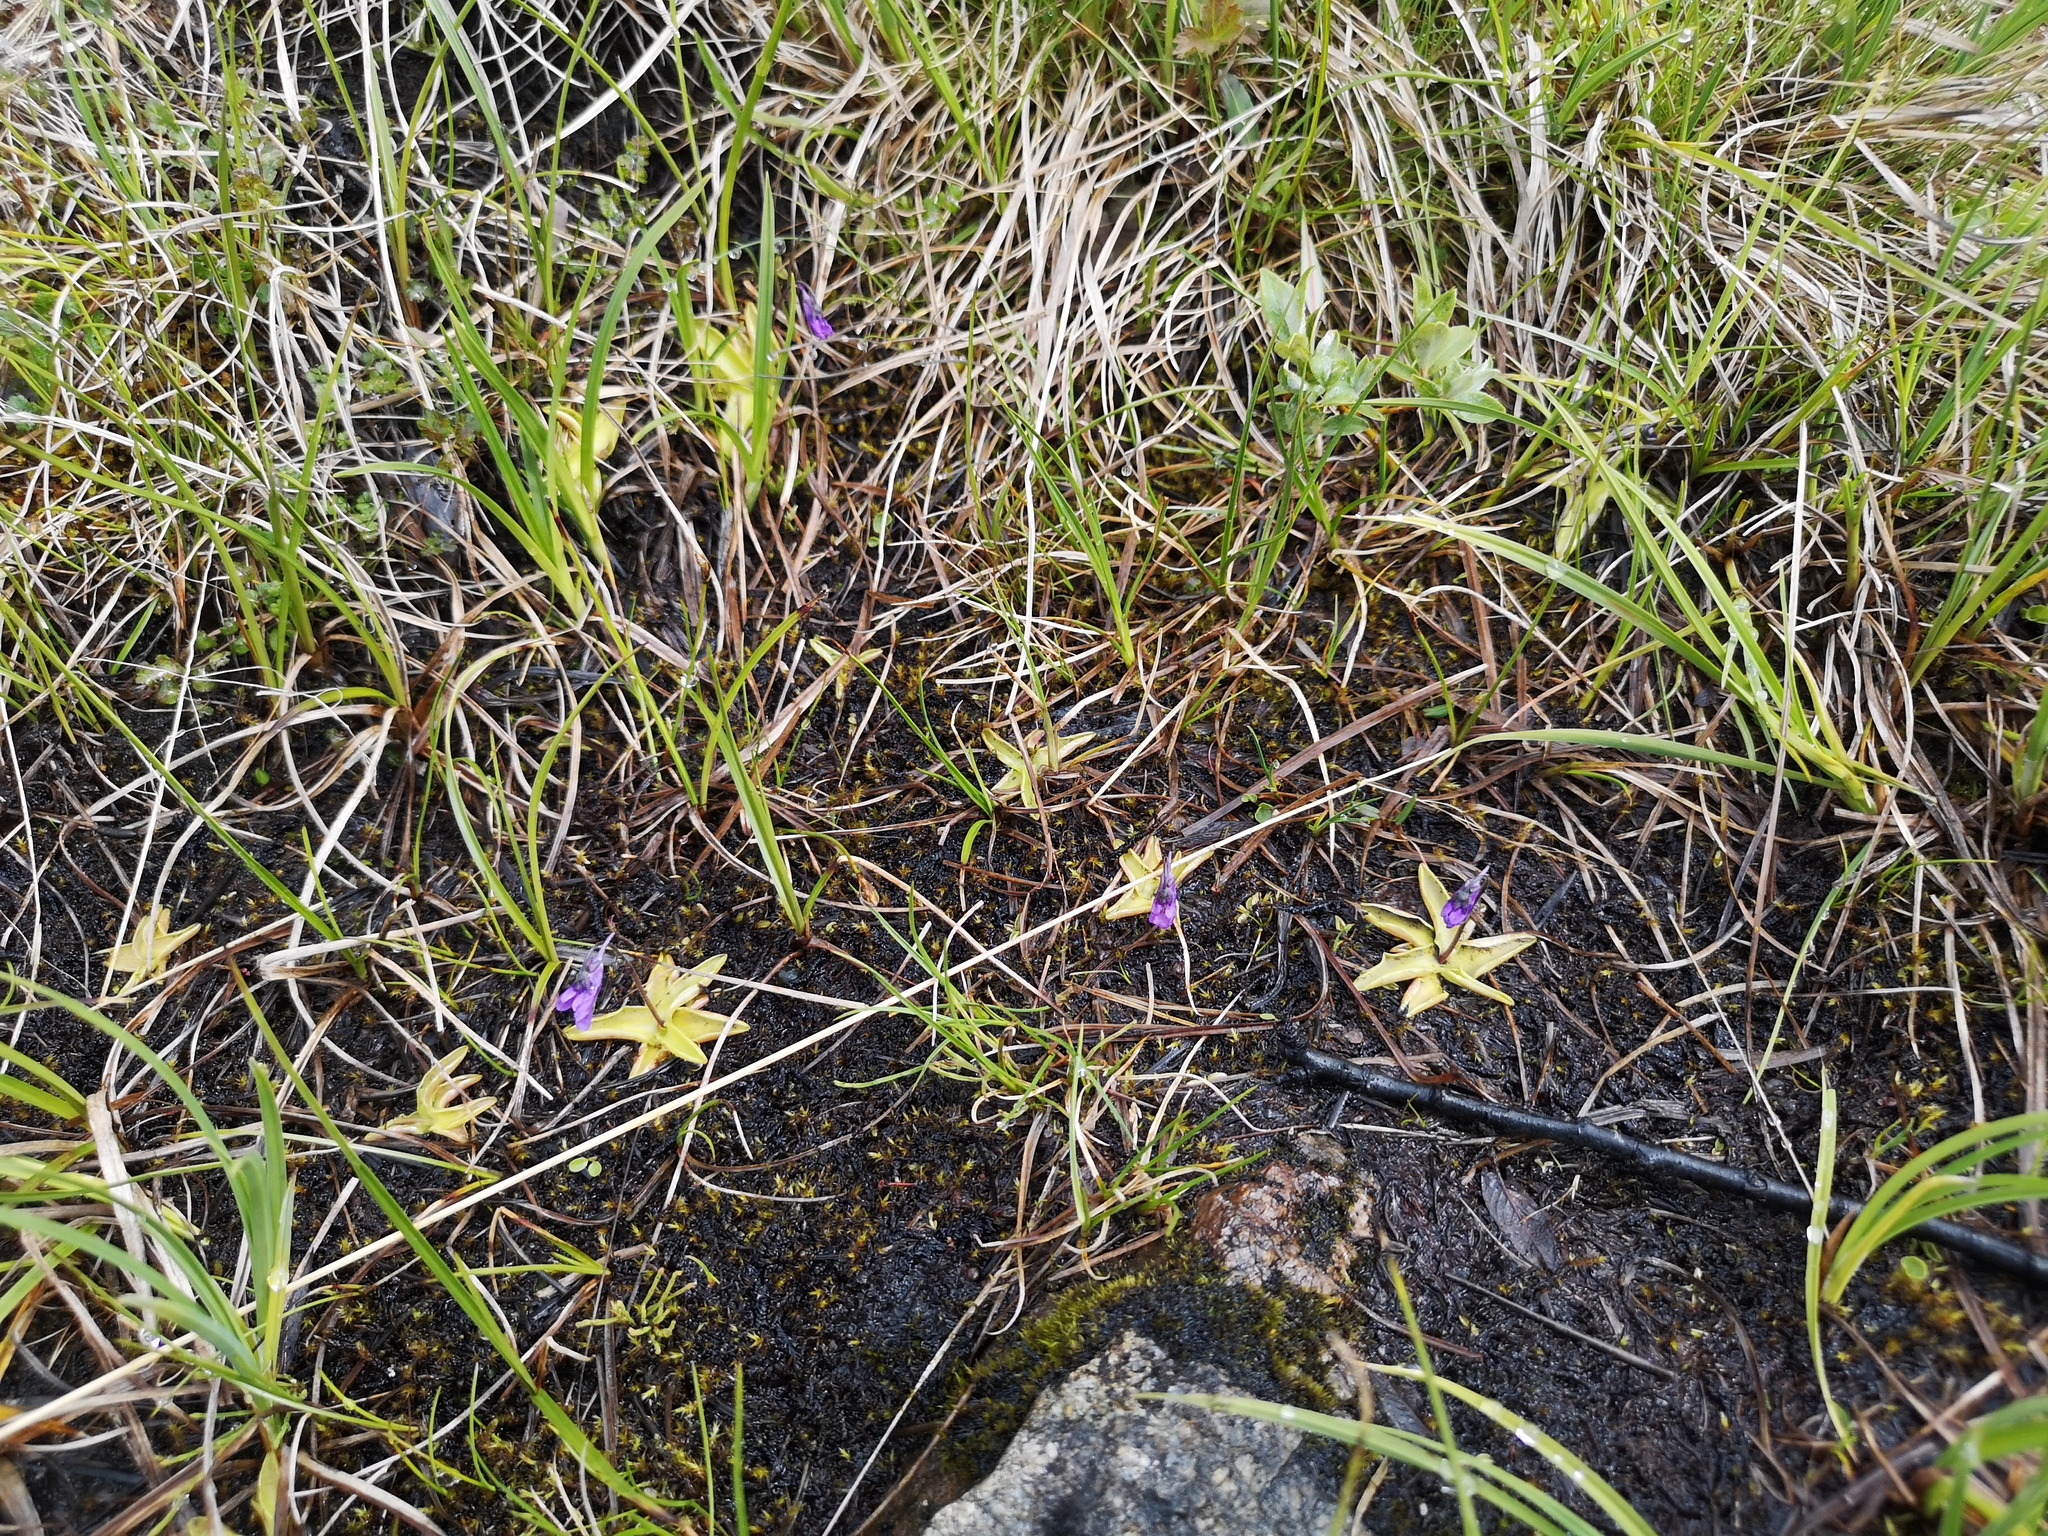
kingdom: Plantae
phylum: Tracheophyta
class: Magnoliopsida
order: Lamiales
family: Lentibulariaceae
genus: Pinguicula
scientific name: Pinguicula vulgaris
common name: Common butterwort
